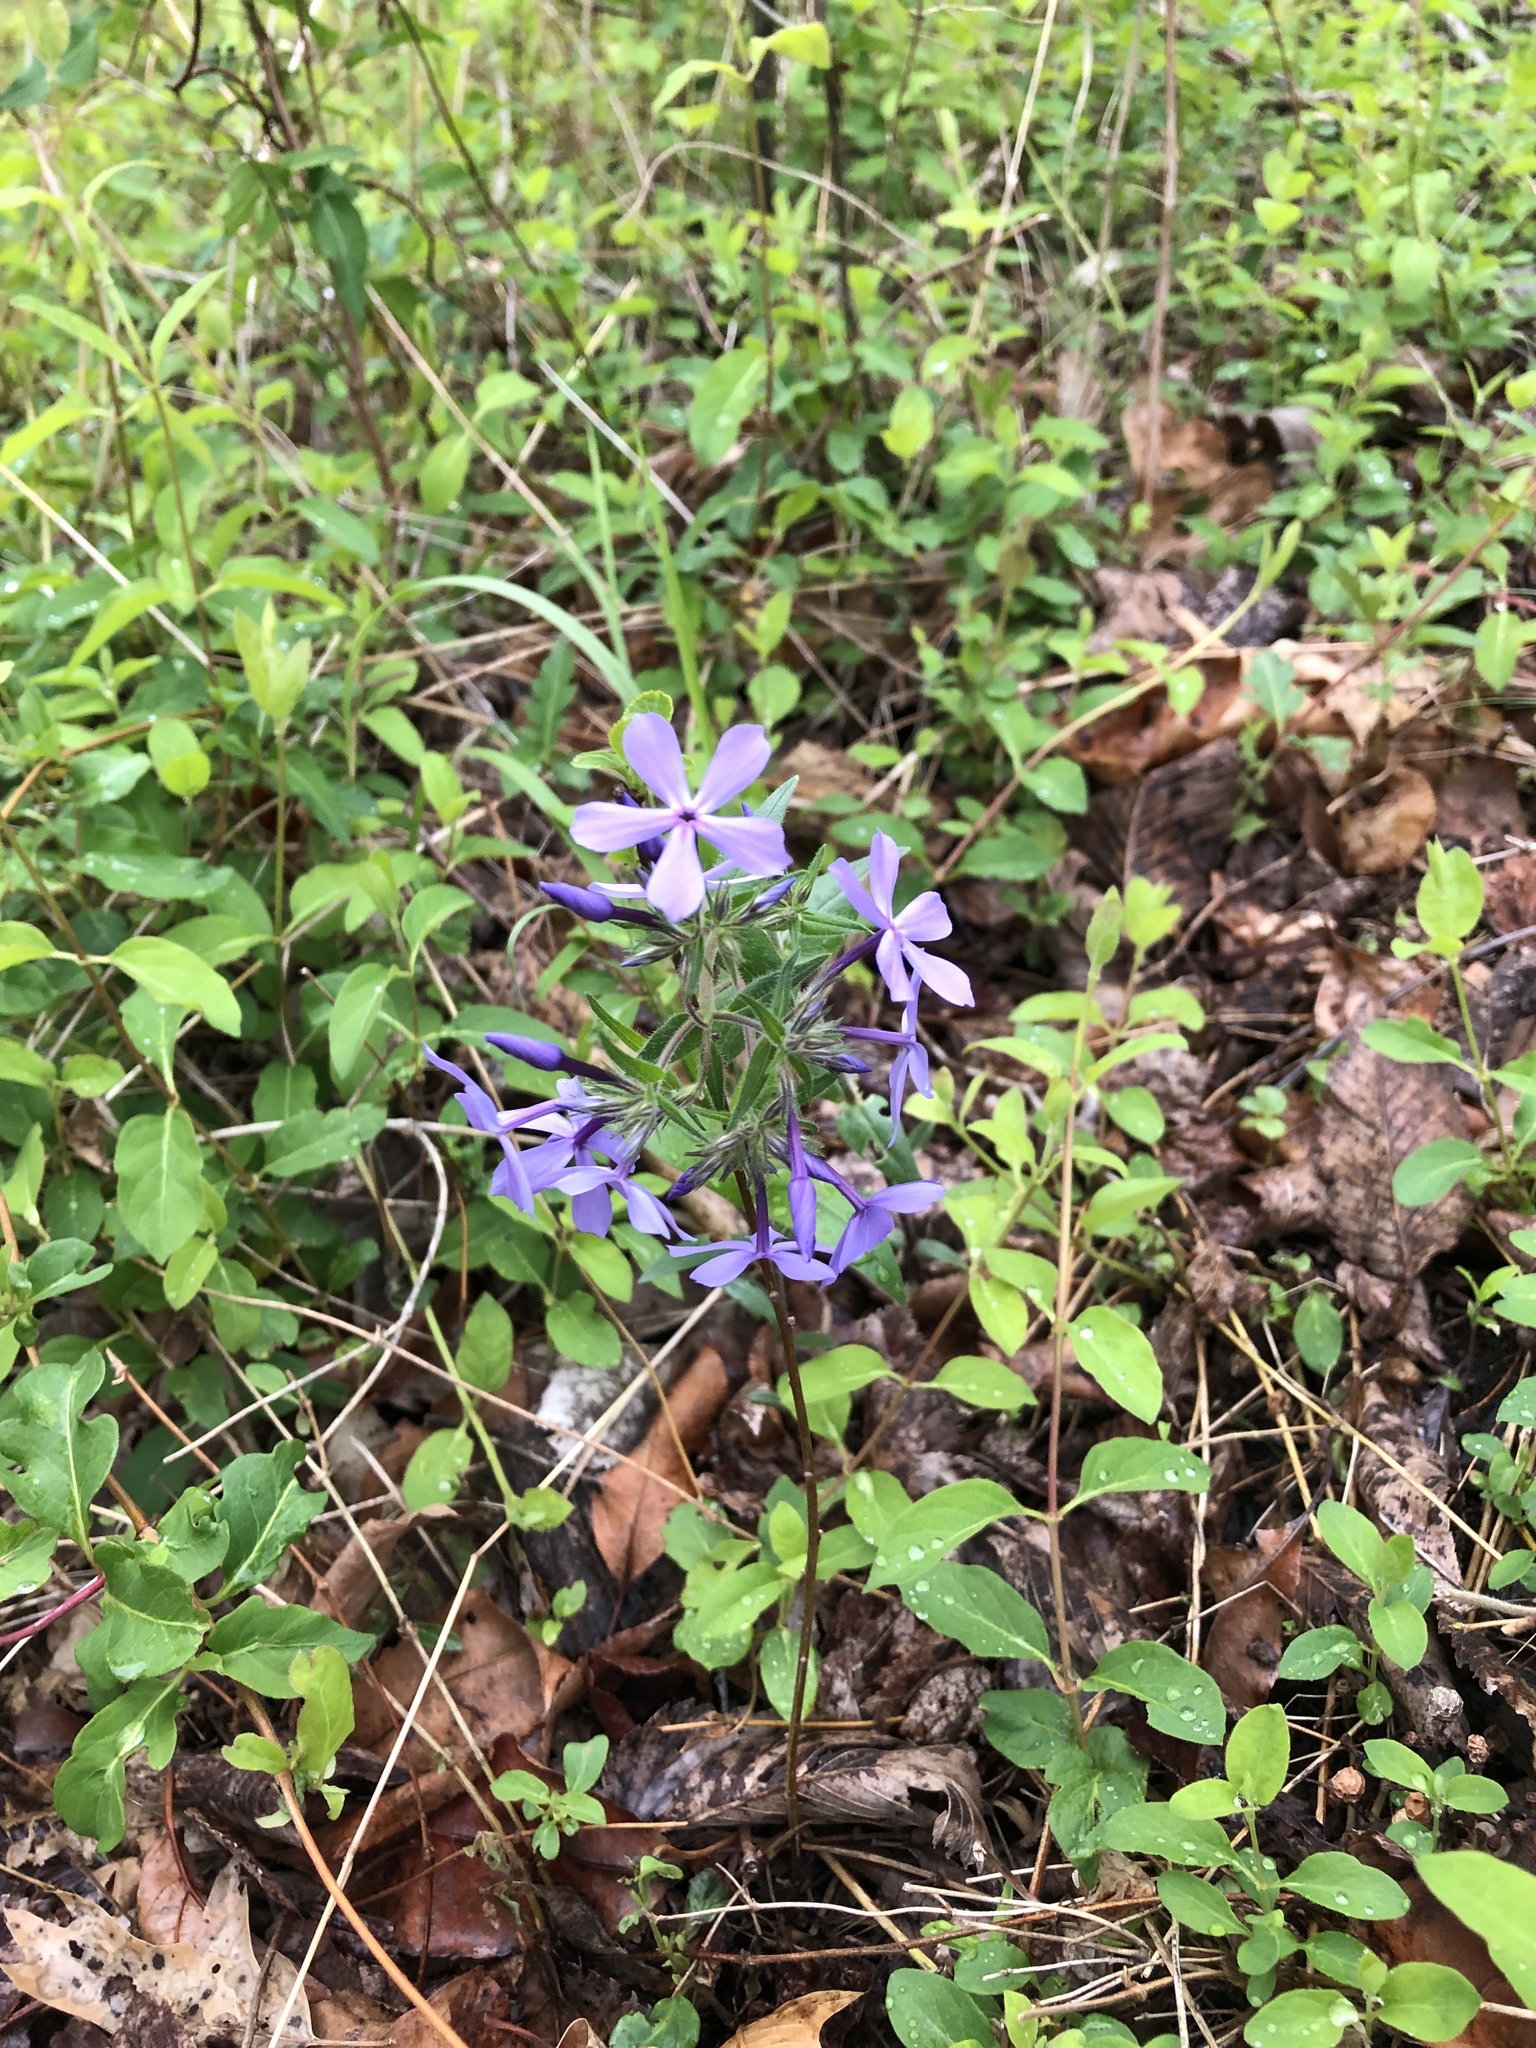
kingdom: Plantae
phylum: Tracheophyta
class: Magnoliopsida
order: Ericales
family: Polemoniaceae
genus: Phlox
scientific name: Phlox divaricata
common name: Blue phlox
